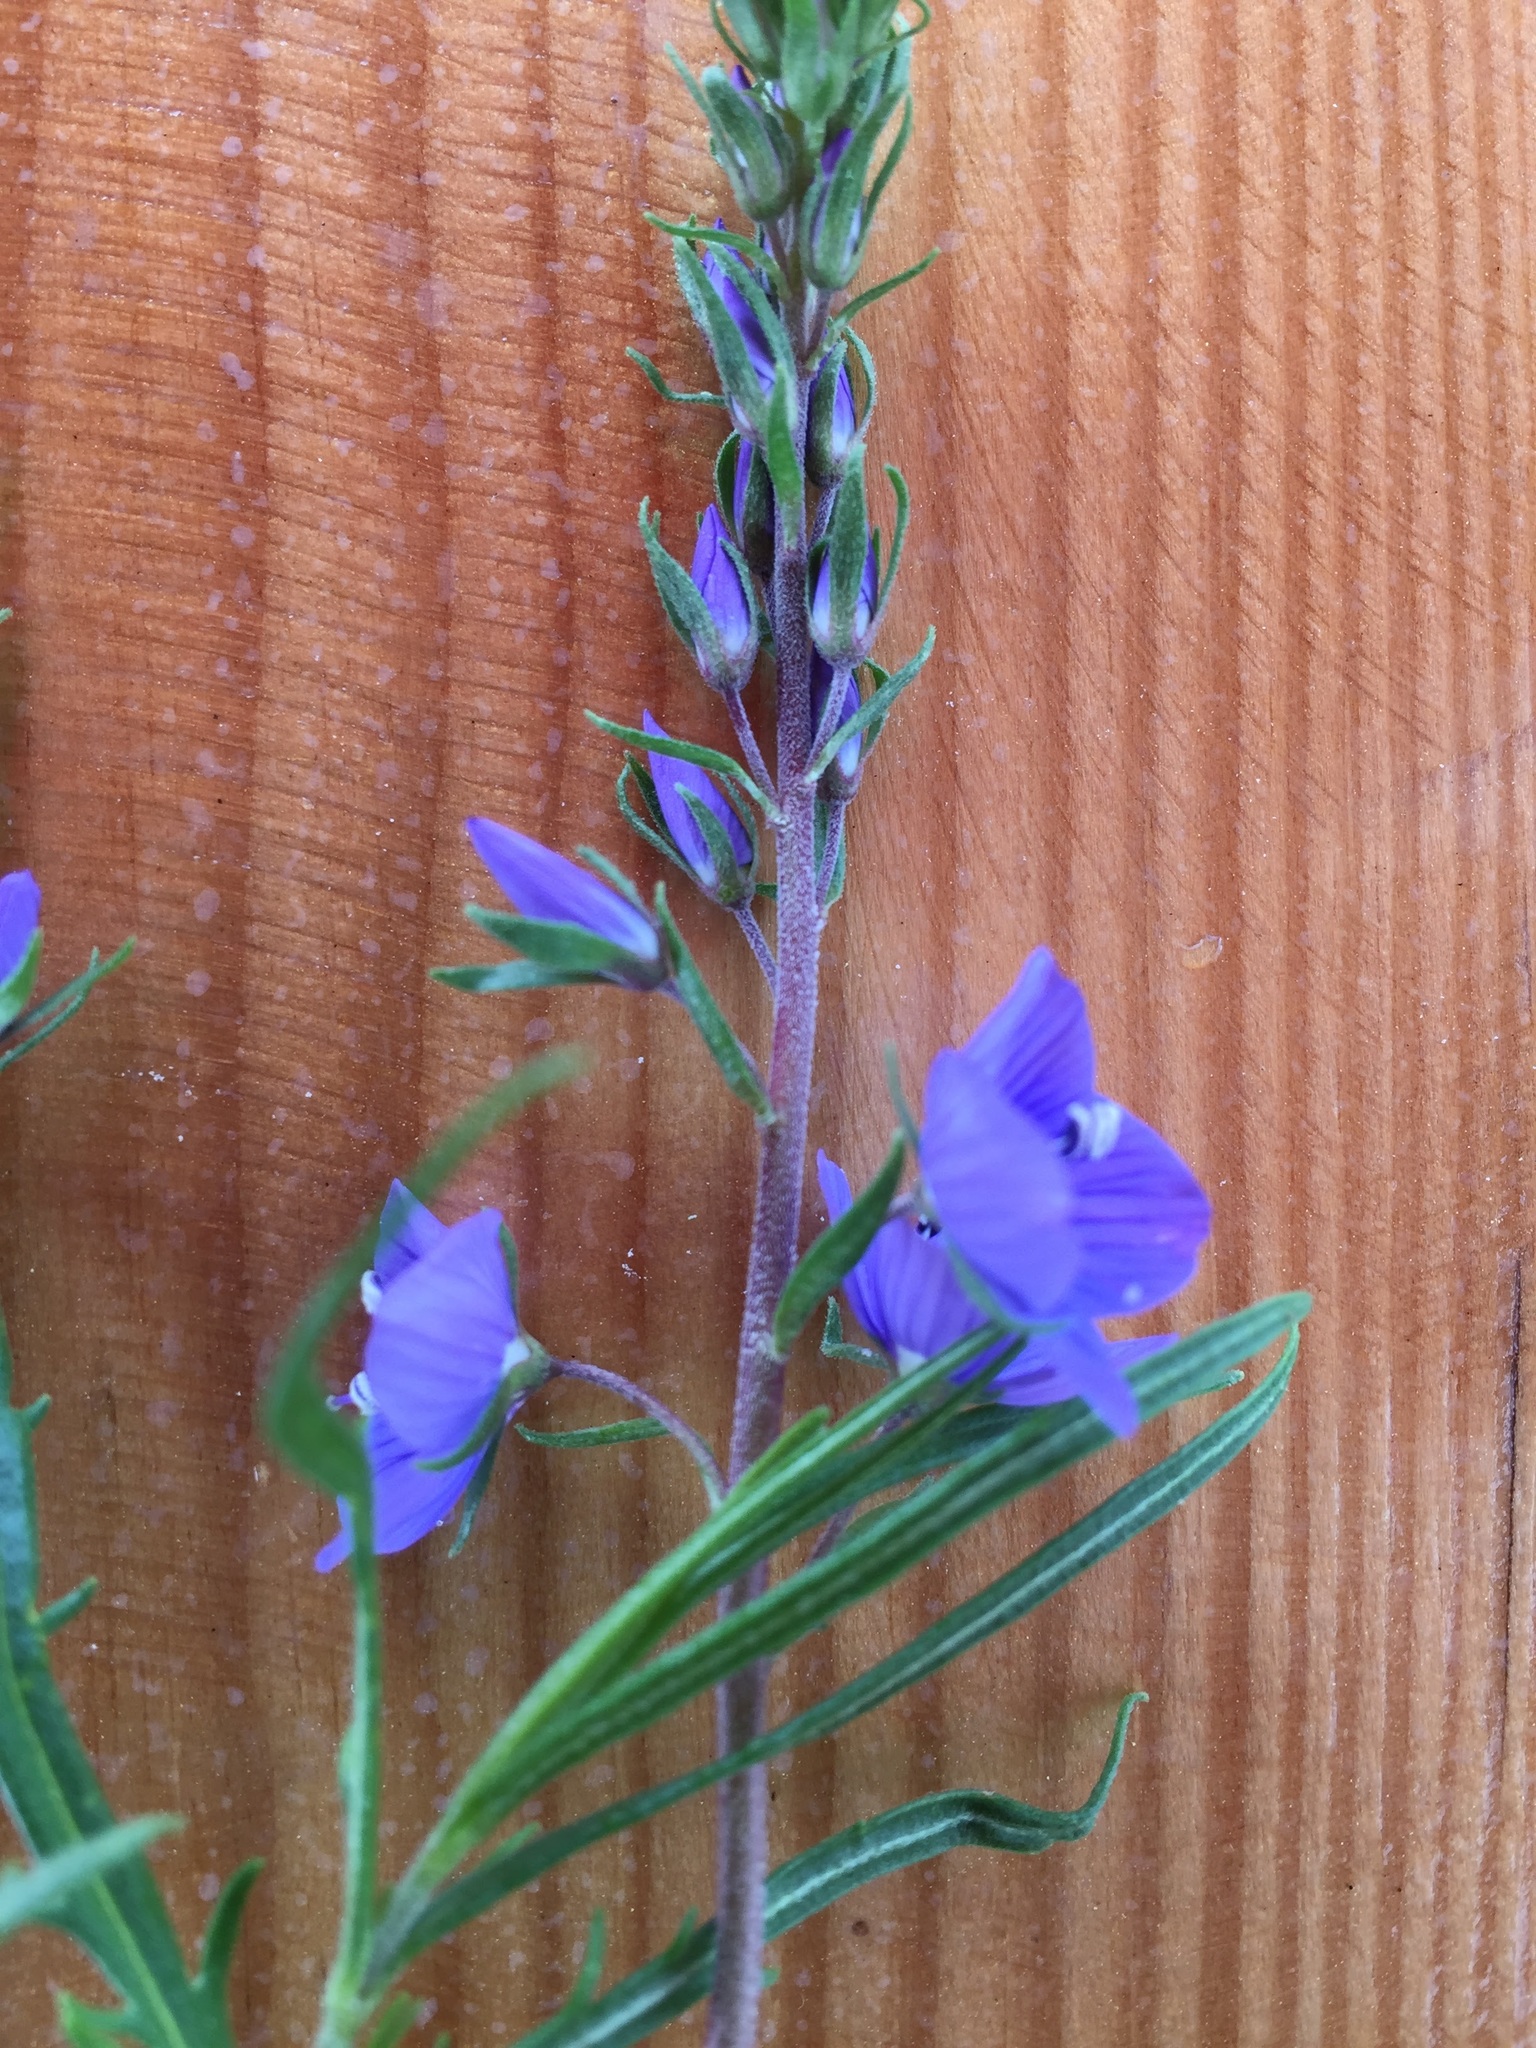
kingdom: Plantae
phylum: Tracheophyta
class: Magnoliopsida
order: Lamiales
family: Plantaginaceae
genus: Veronica
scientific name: Veronica multifida
